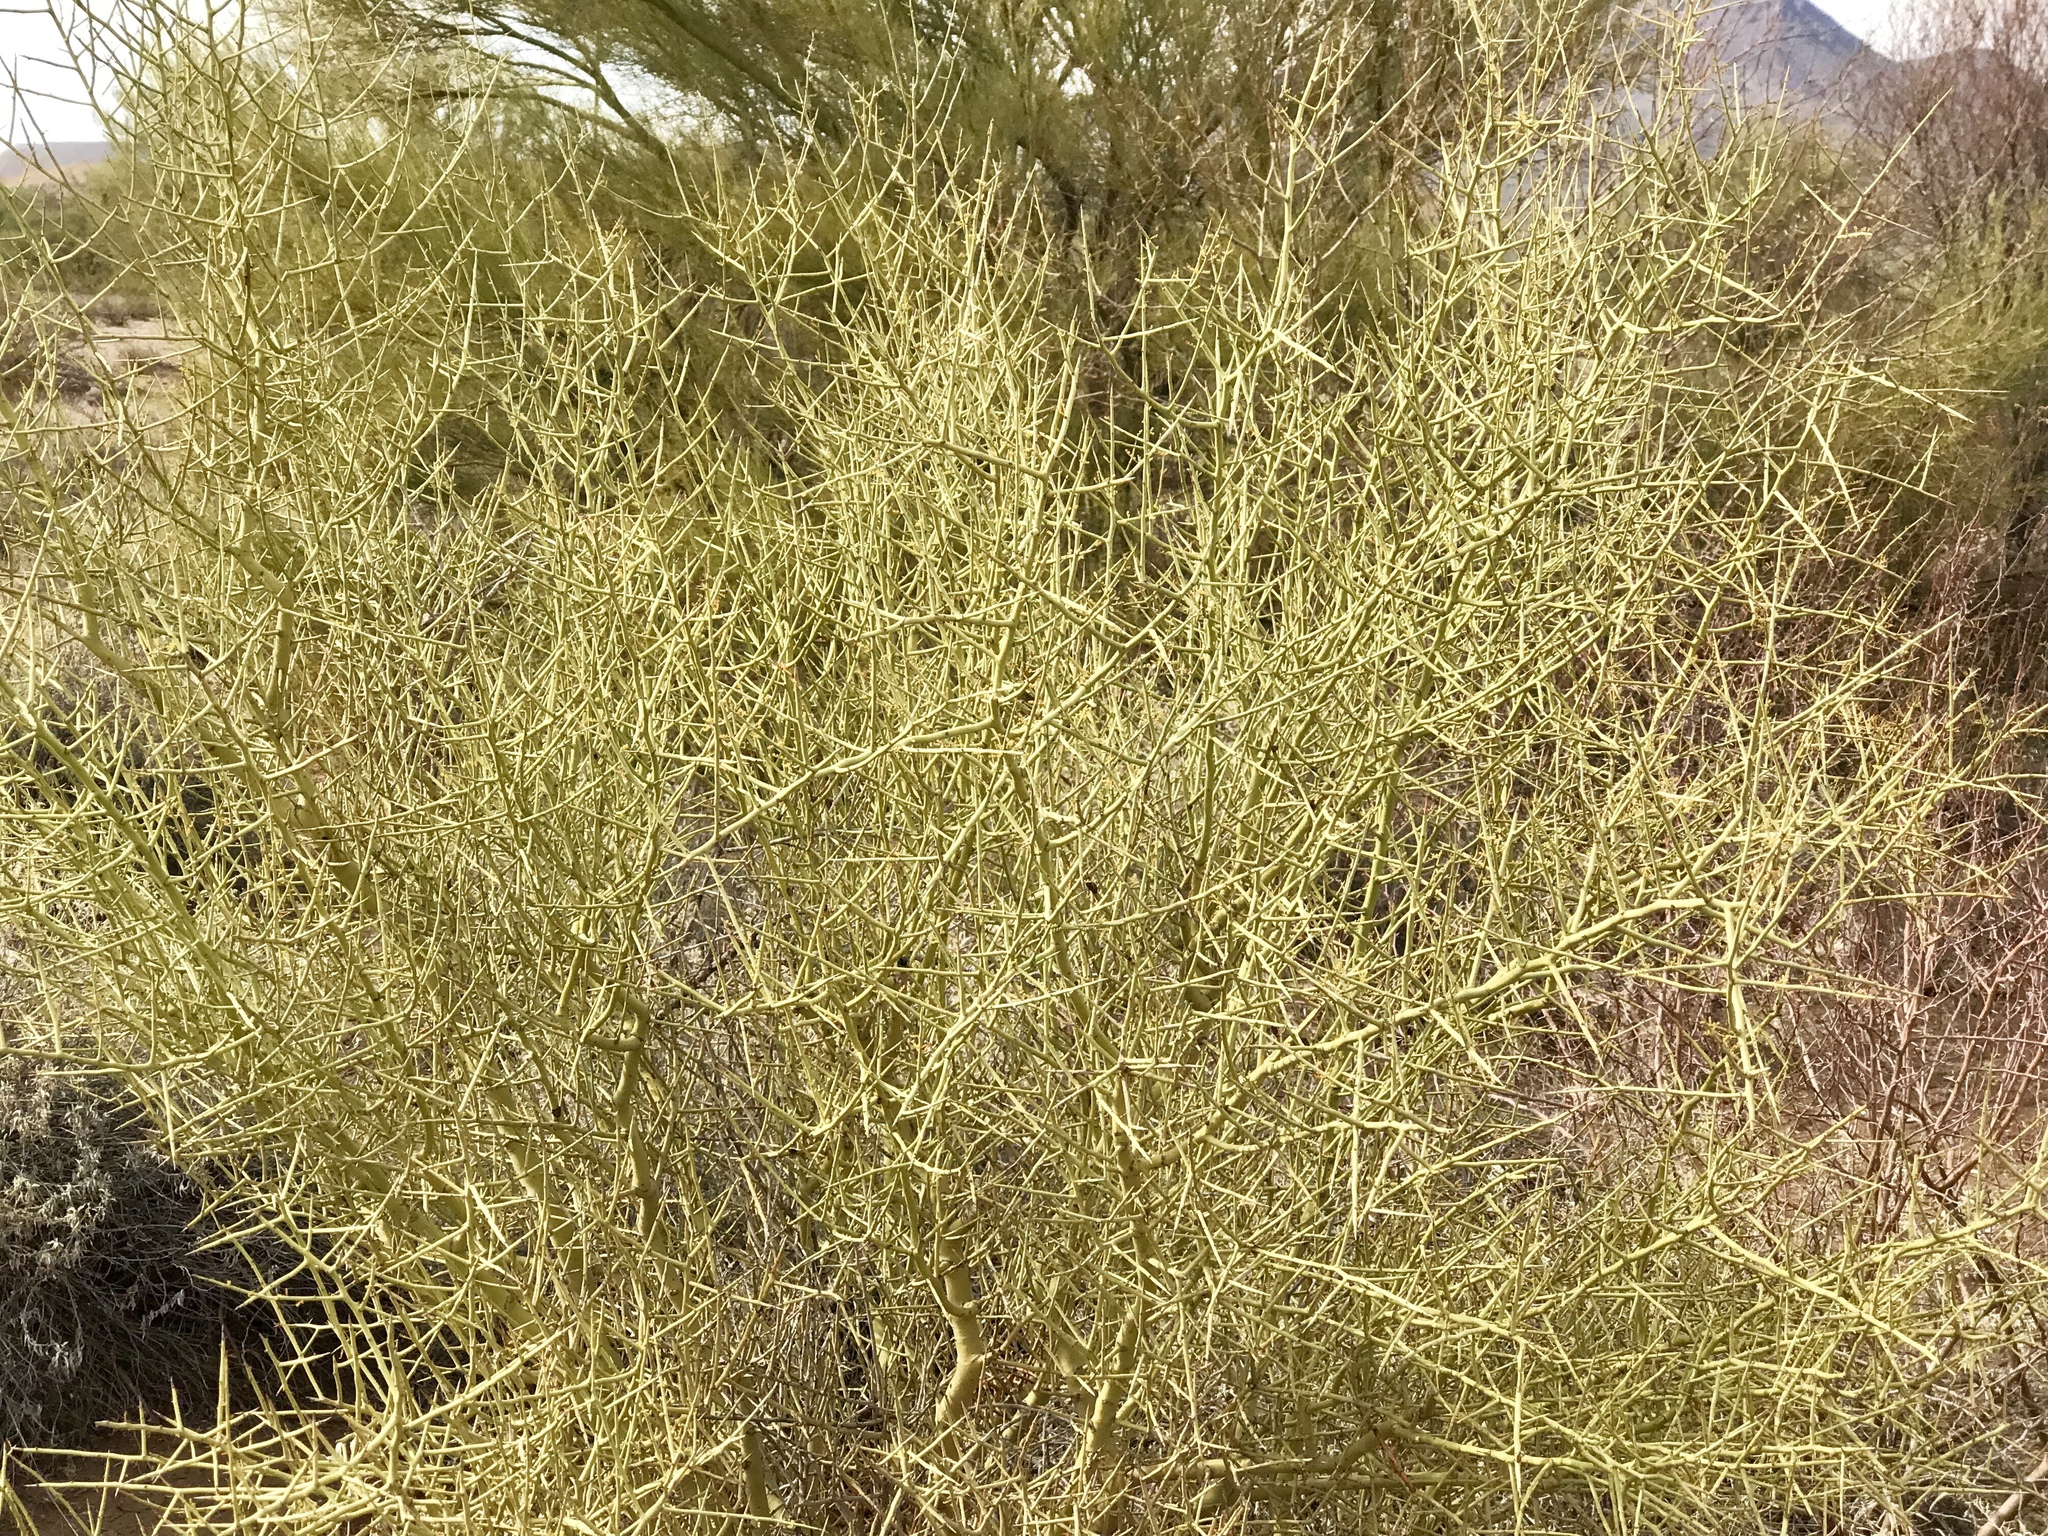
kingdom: Plantae
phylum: Tracheophyta
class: Magnoliopsida
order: Fabales
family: Fabaceae
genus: Parkinsonia
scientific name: Parkinsonia microphylla
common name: Yellow paloverde
